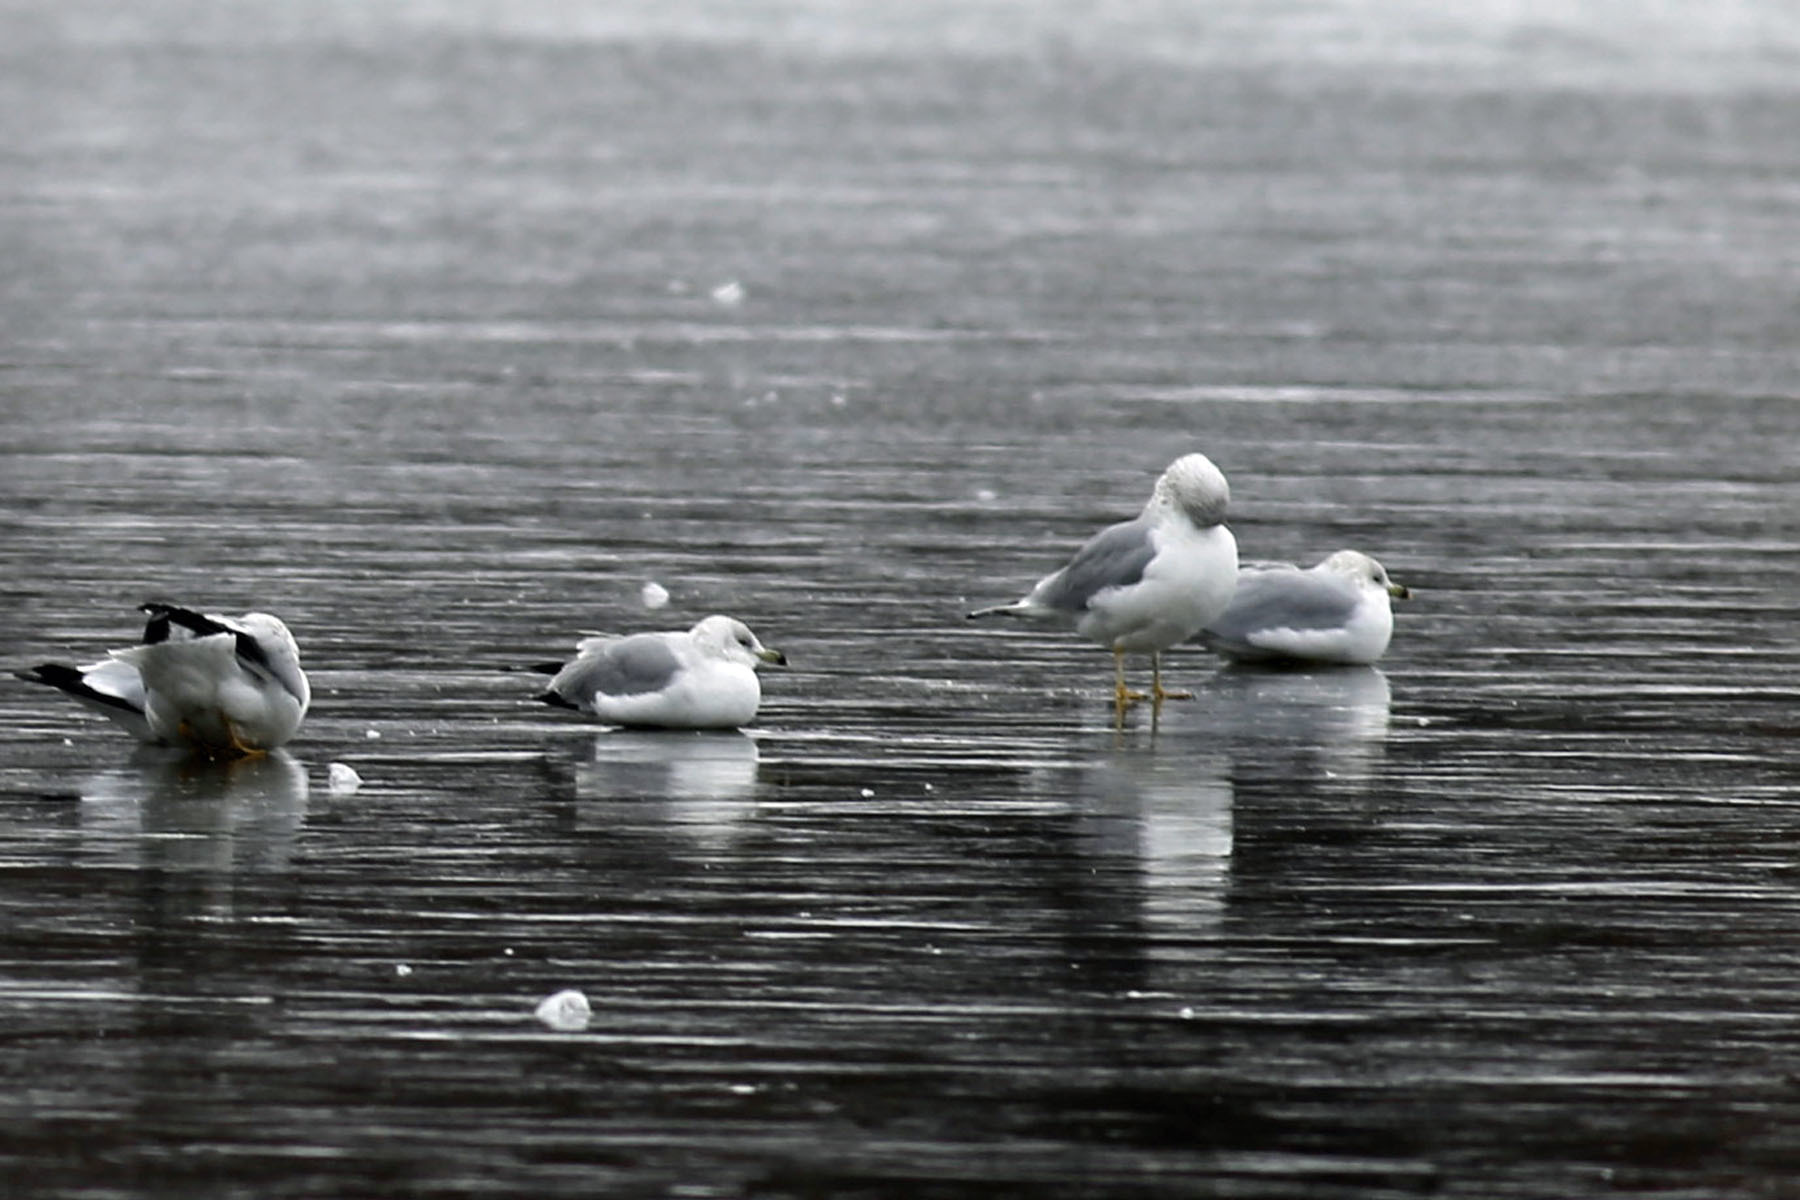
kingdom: Animalia
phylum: Chordata
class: Aves
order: Charadriiformes
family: Laridae
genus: Larus
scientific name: Larus delawarensis
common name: Ring-billed gull
